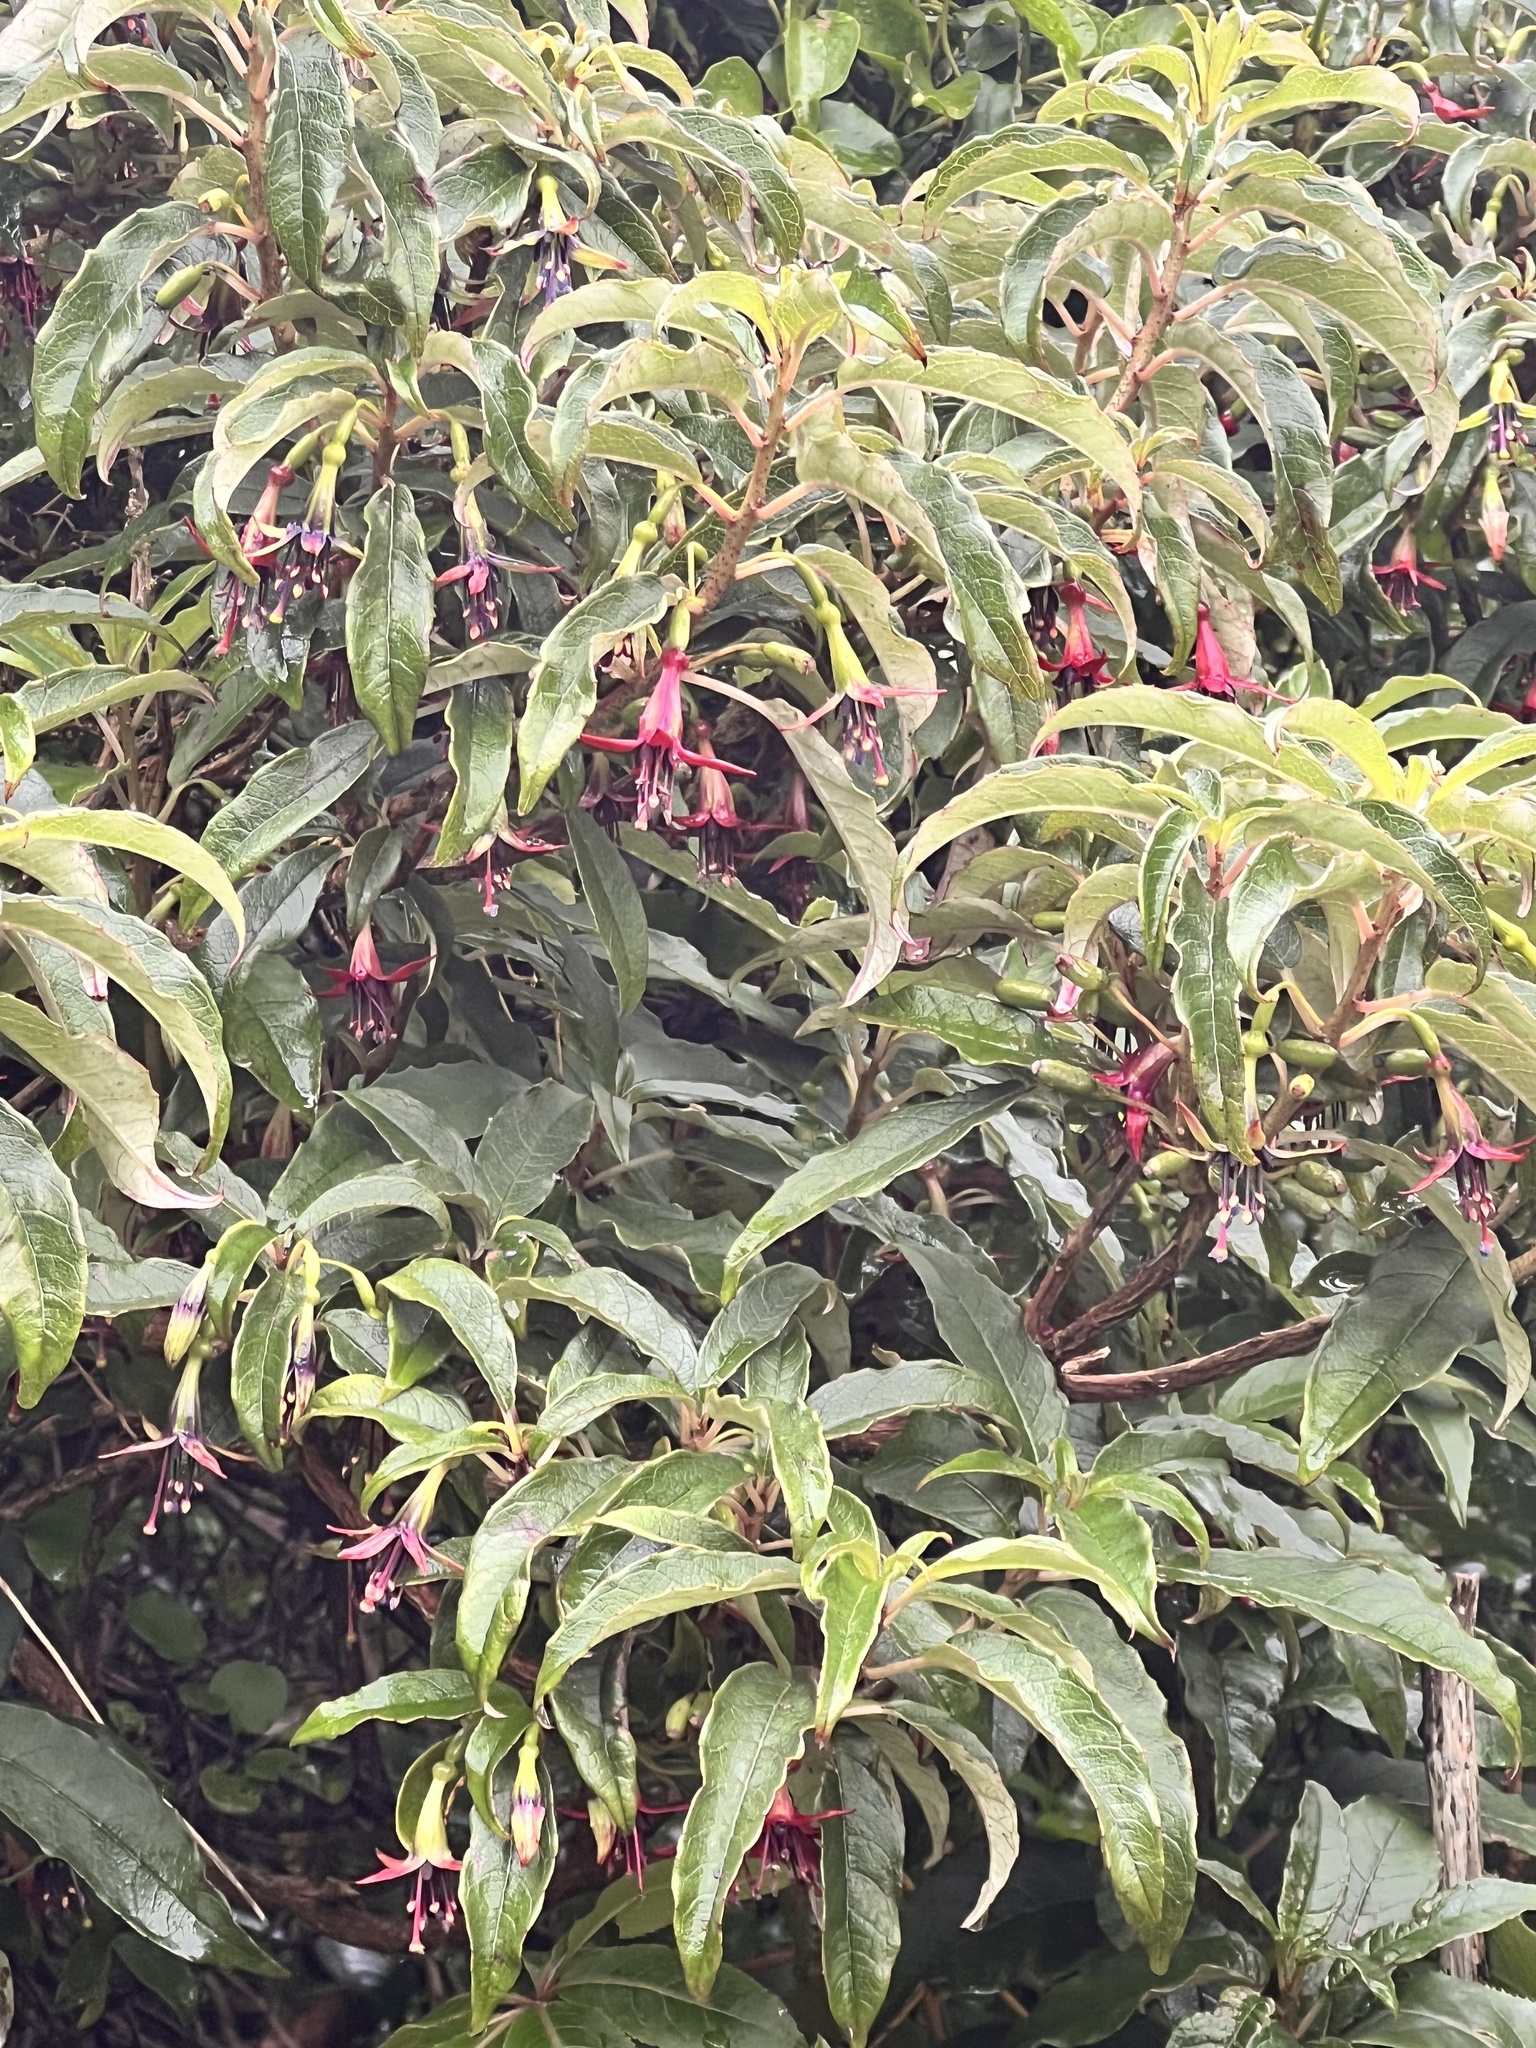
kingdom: Plantae
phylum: Tracheophyta
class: Magnoliopsida
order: Myrtales
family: Onagraceae
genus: Fuchsia
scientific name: Fuchsia excorticata
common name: Tree fuchsia
